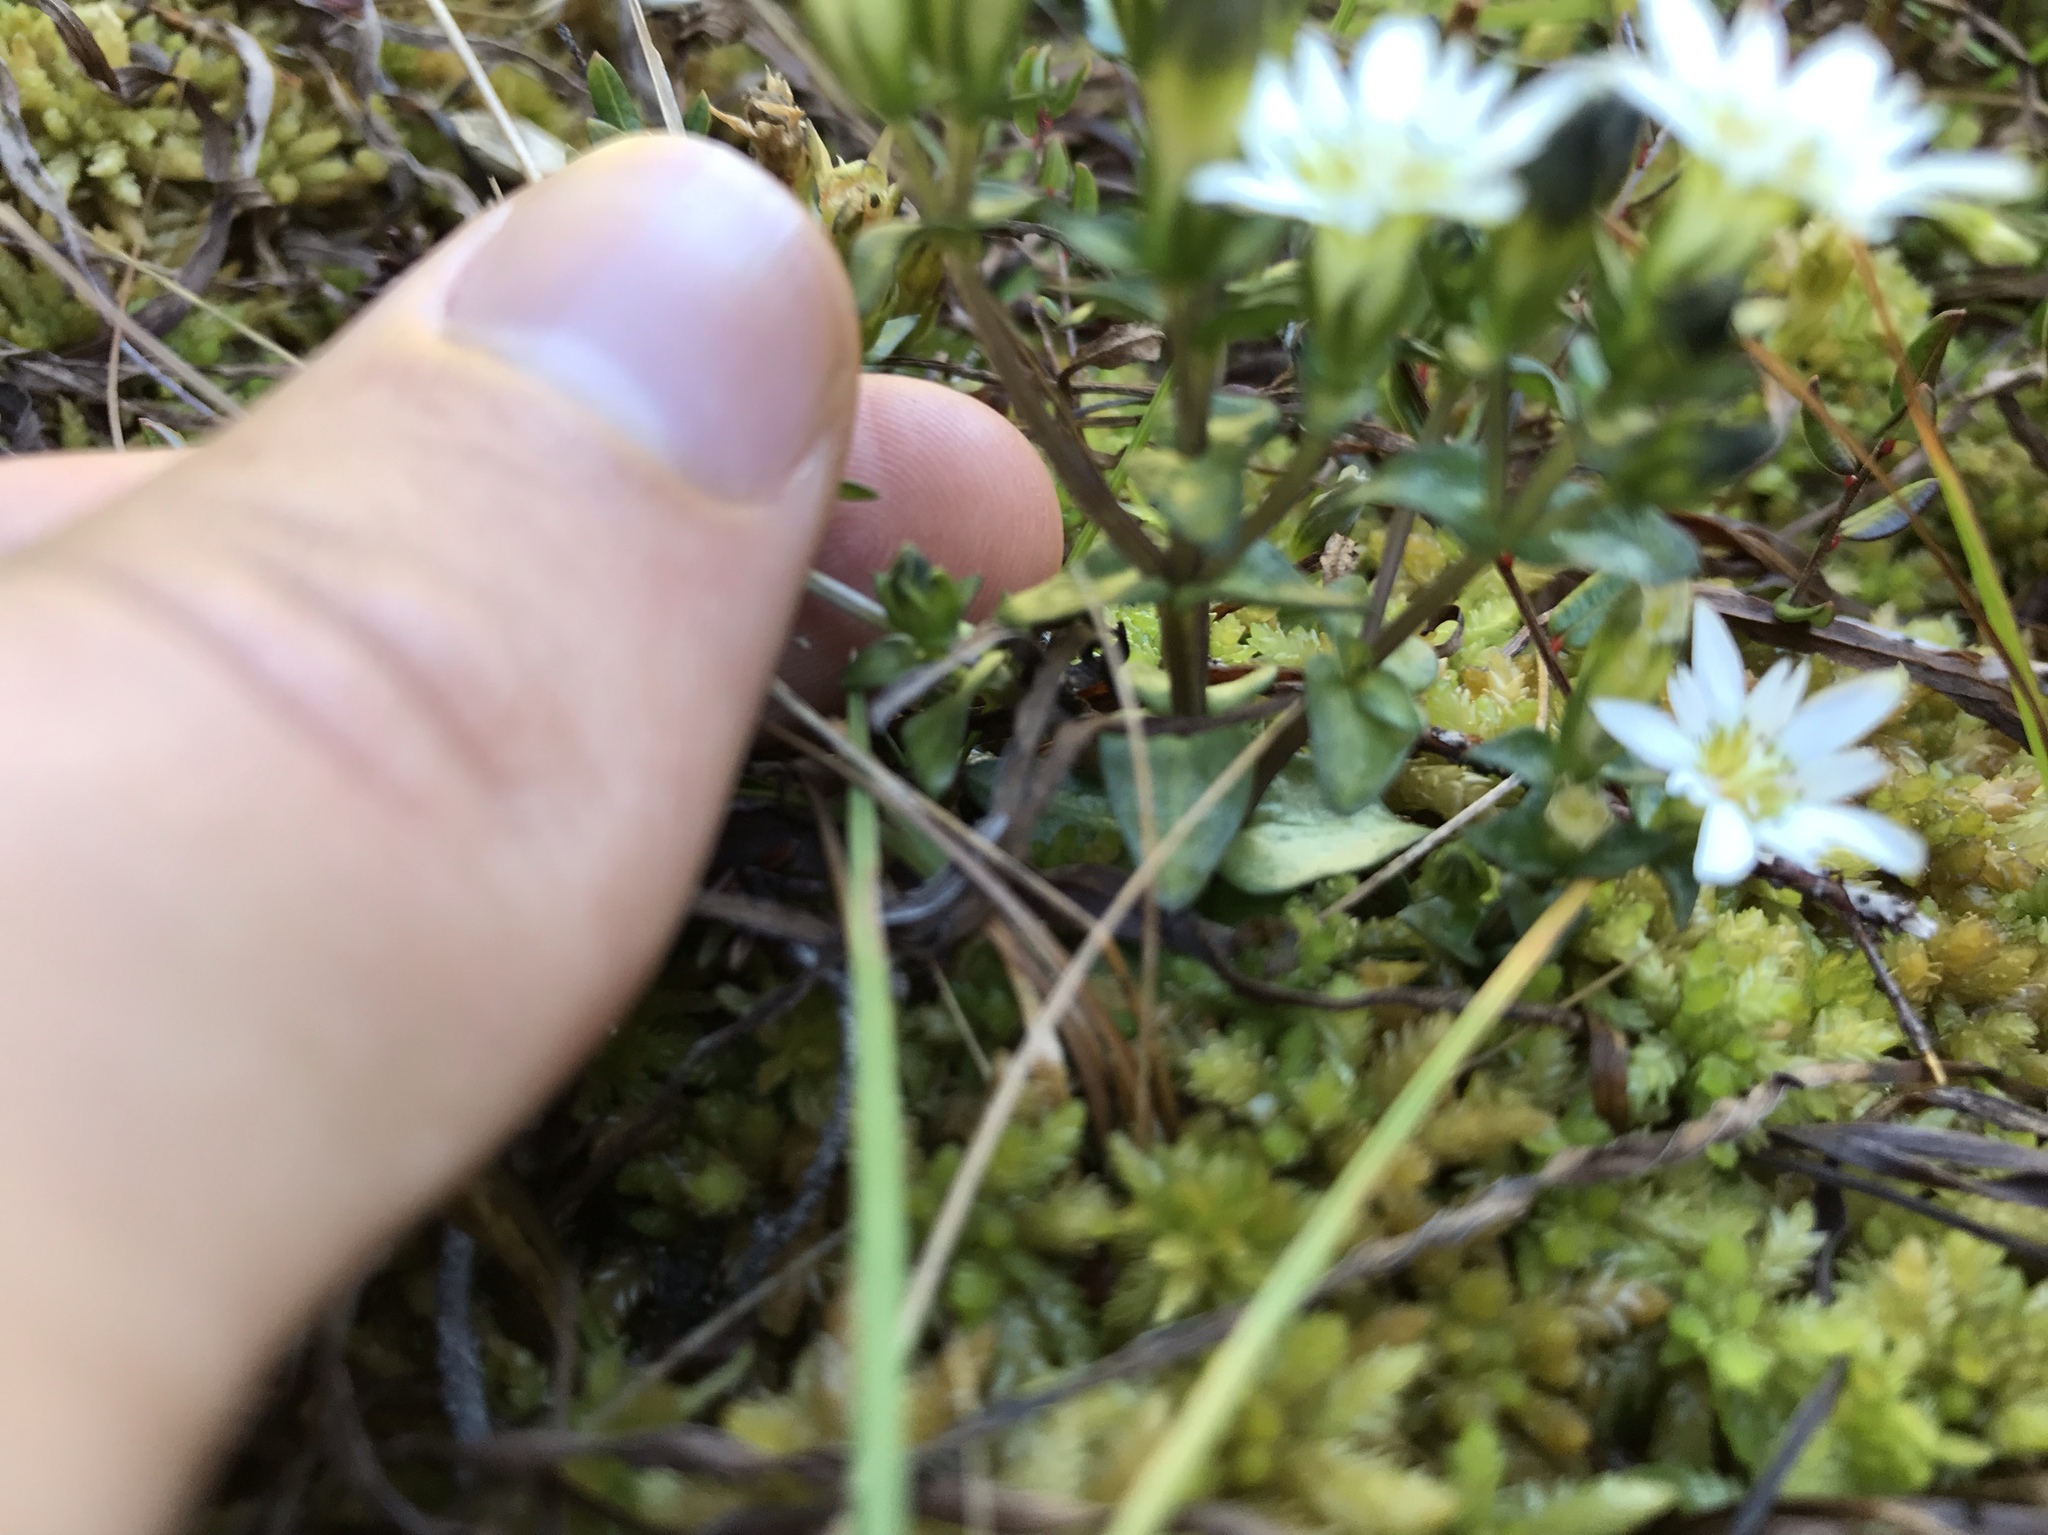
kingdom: Plantae
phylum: Tracheophyta
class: Magnoliopsida
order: Gentianales
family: Gentianaceae
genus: Gentiana
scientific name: Gentiana douglasiana
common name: Swamp gentian
